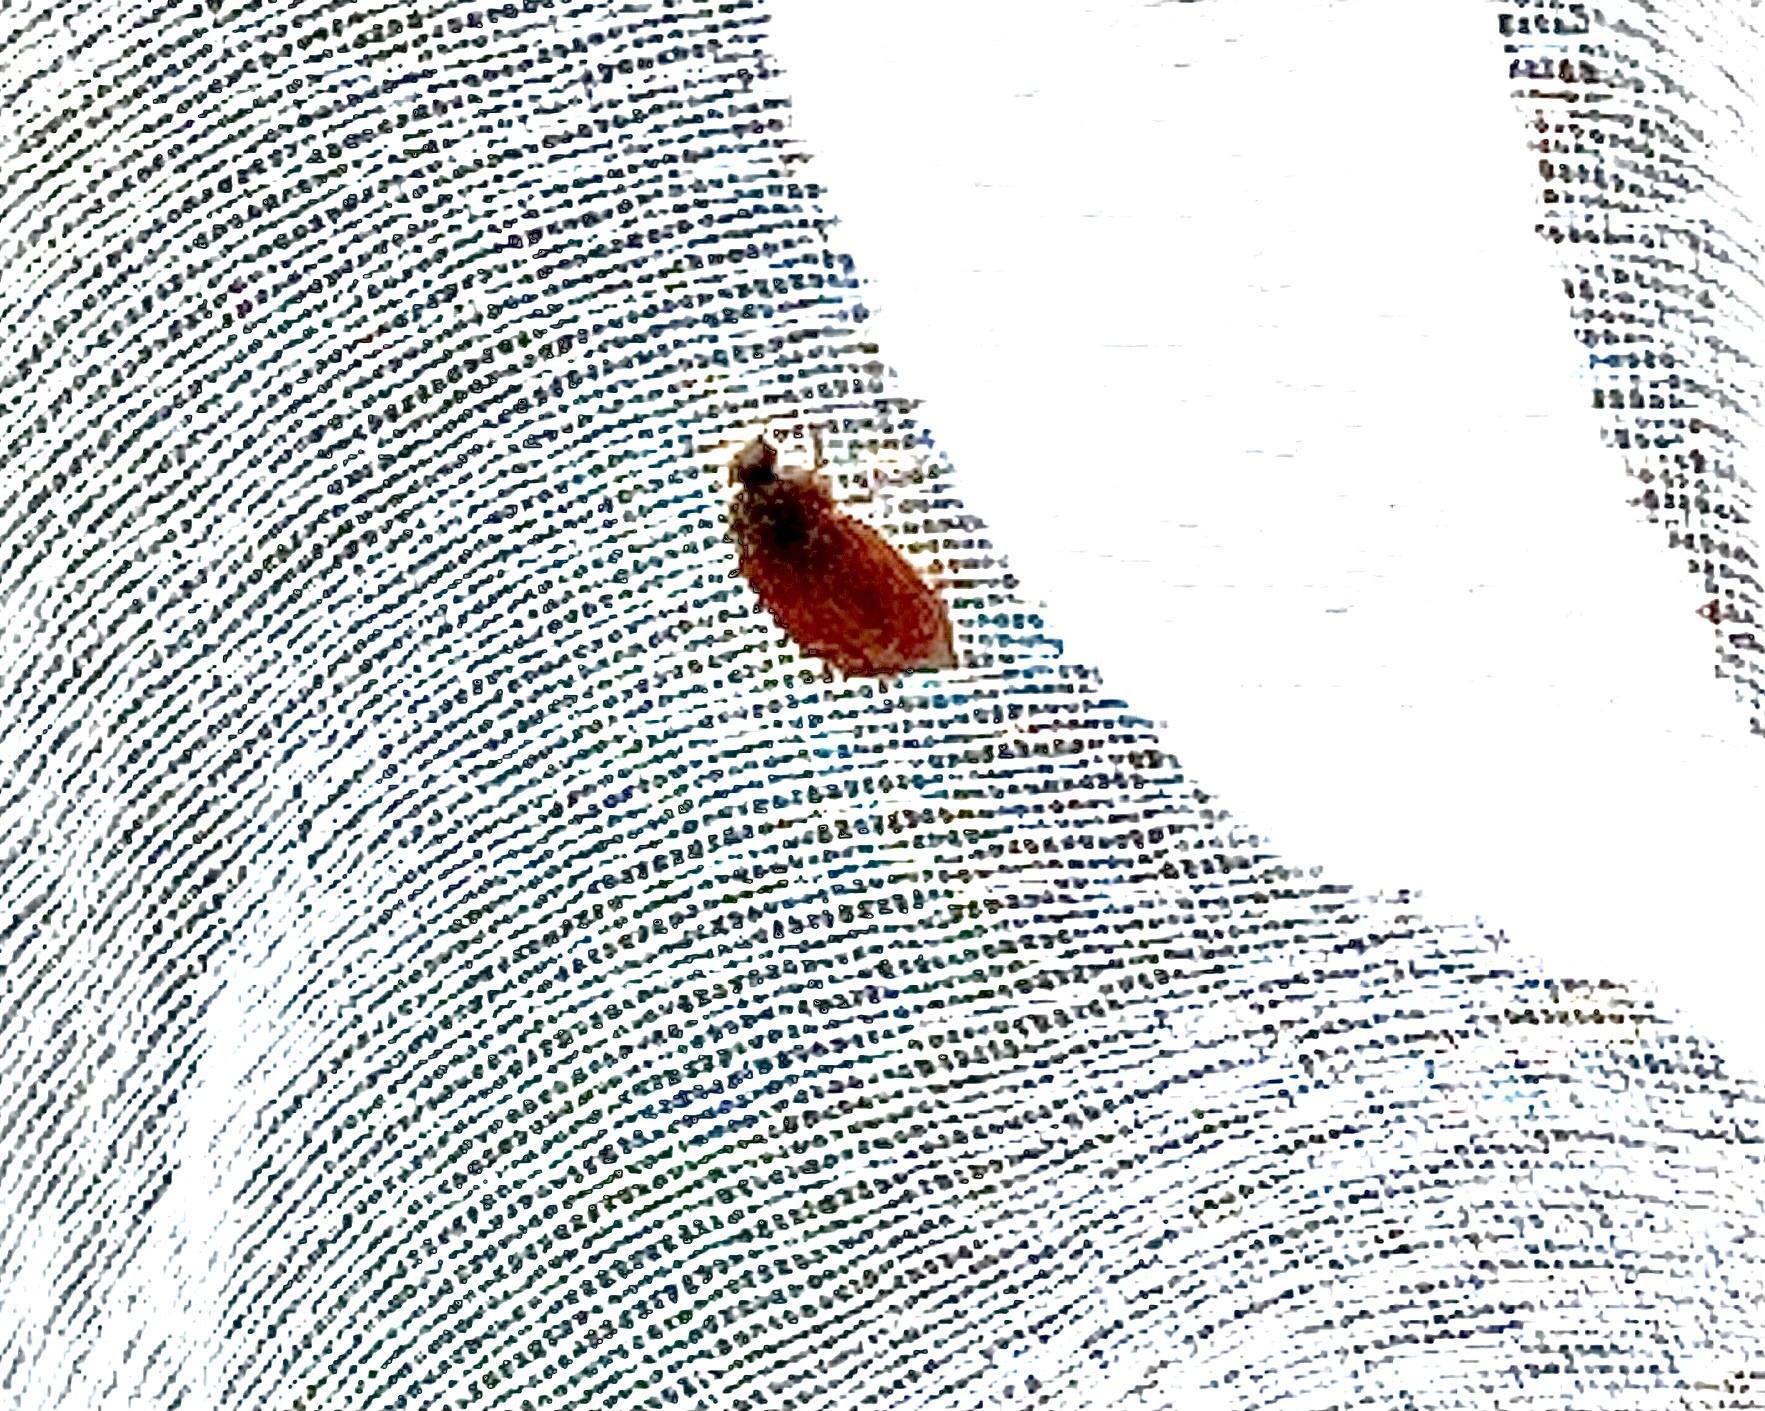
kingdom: Animalia
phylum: Arthropoda
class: Insecta
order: Coleoptera
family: Dermestidae
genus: Attagenus
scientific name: Attagenus smirnovi
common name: Brown carpet beetle
